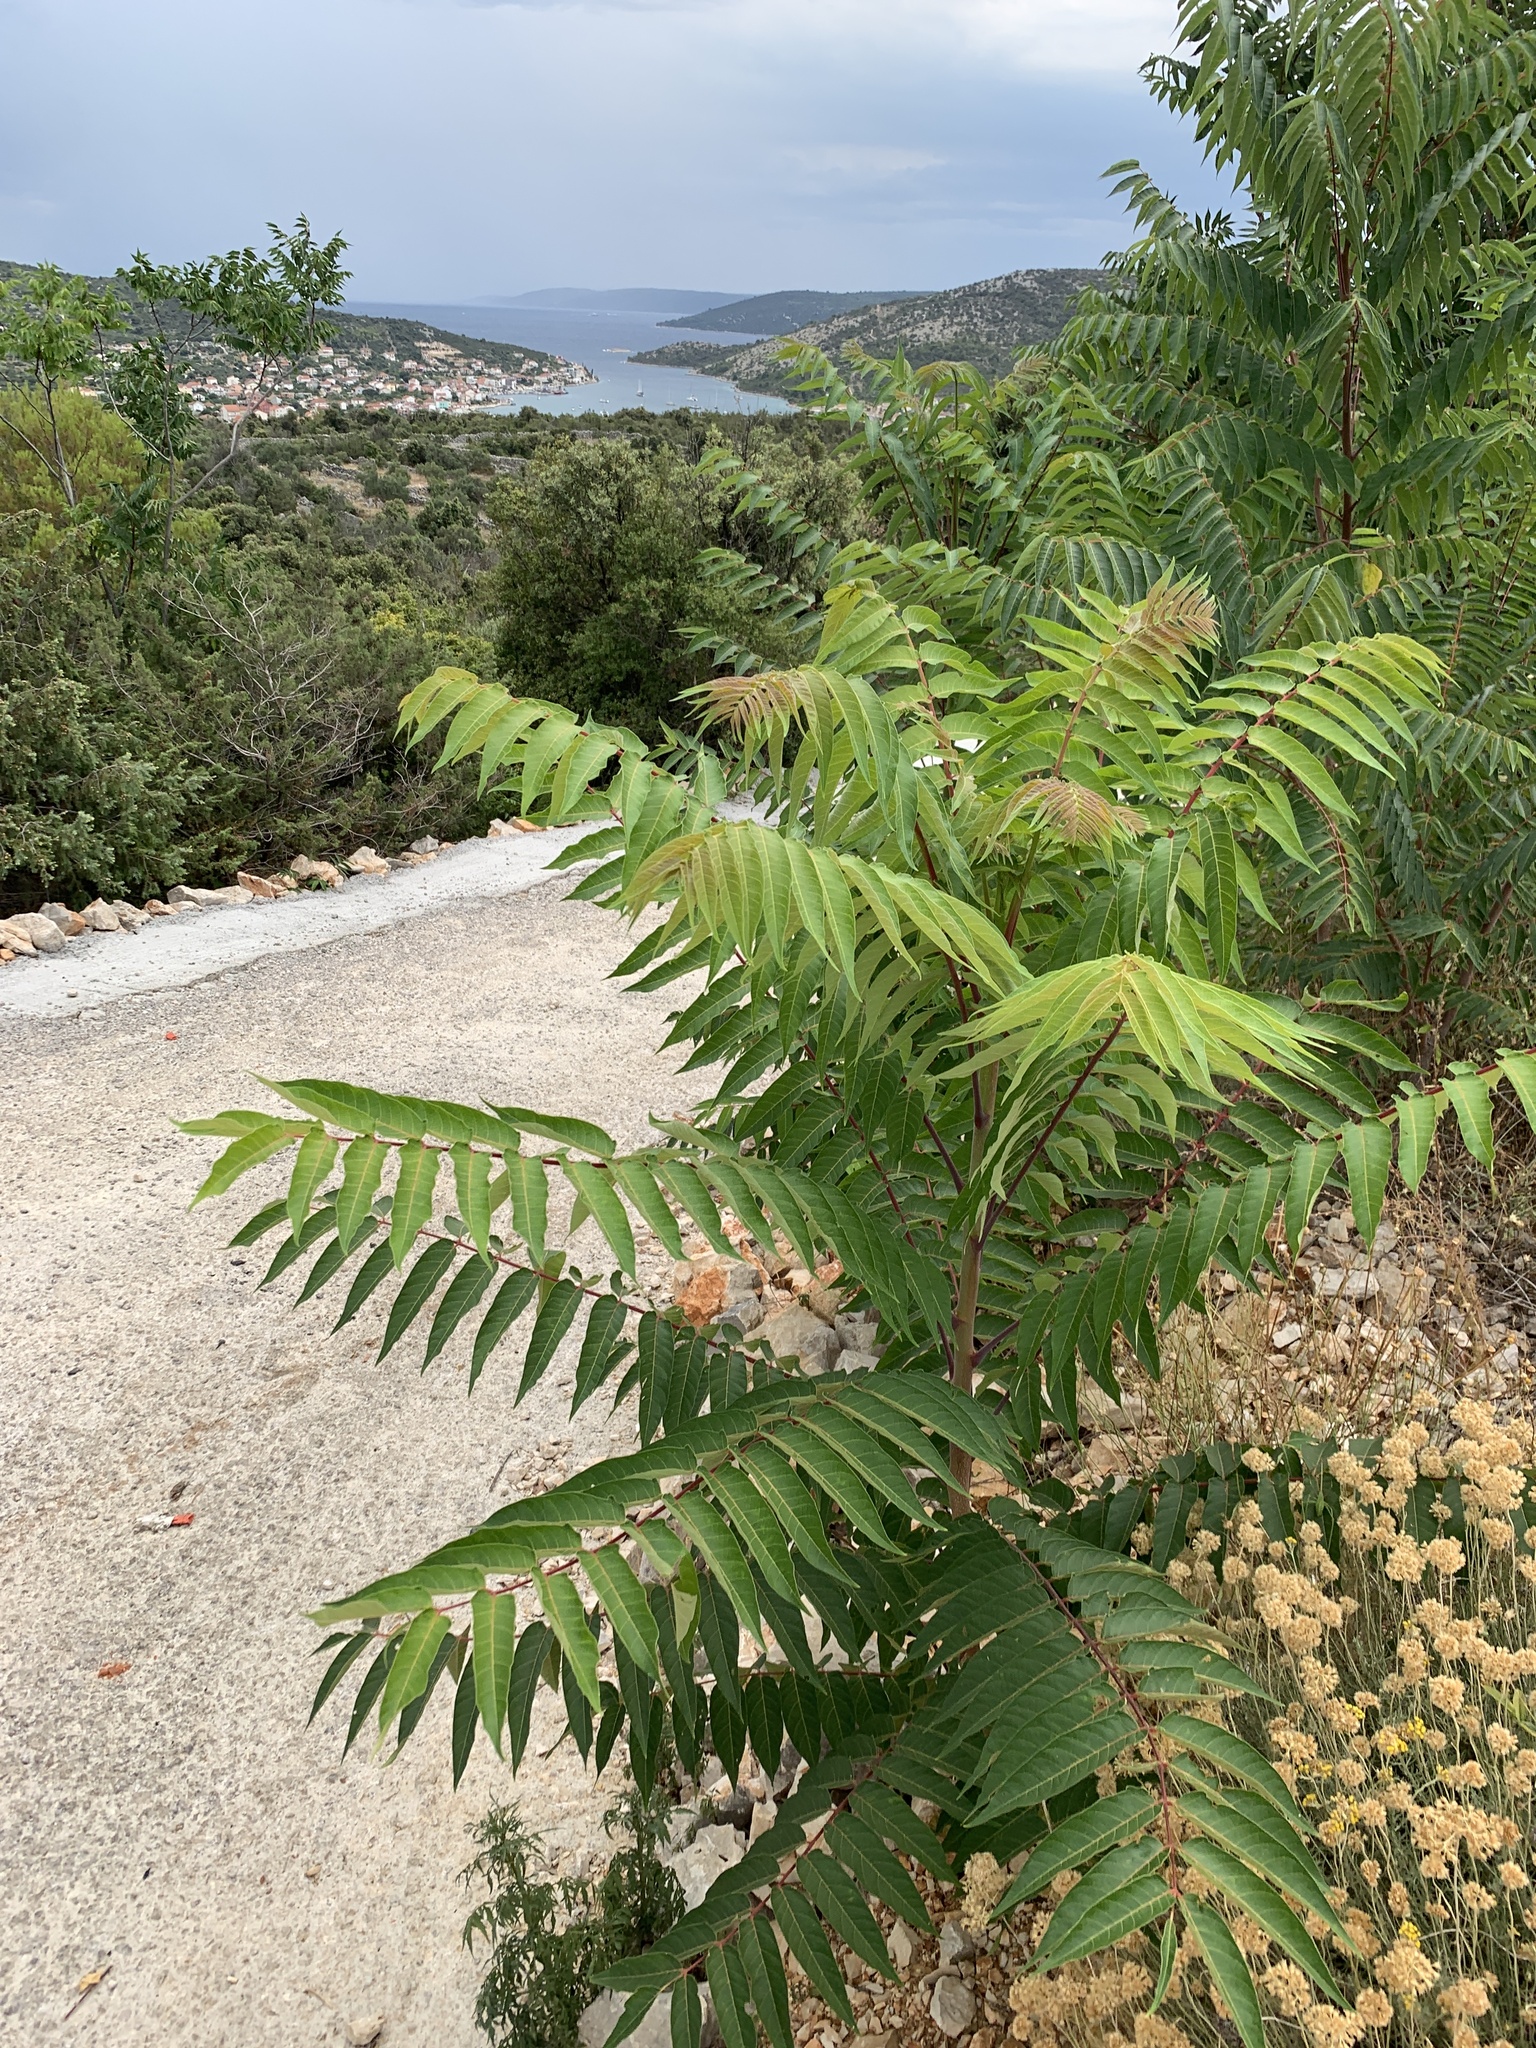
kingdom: Plantae
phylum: Tracheophyta
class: Magnoliopsida
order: Sapindales
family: Simaroubaceae
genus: Ailanthus
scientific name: Ailanthus altissima
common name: Tree-of-heaven
